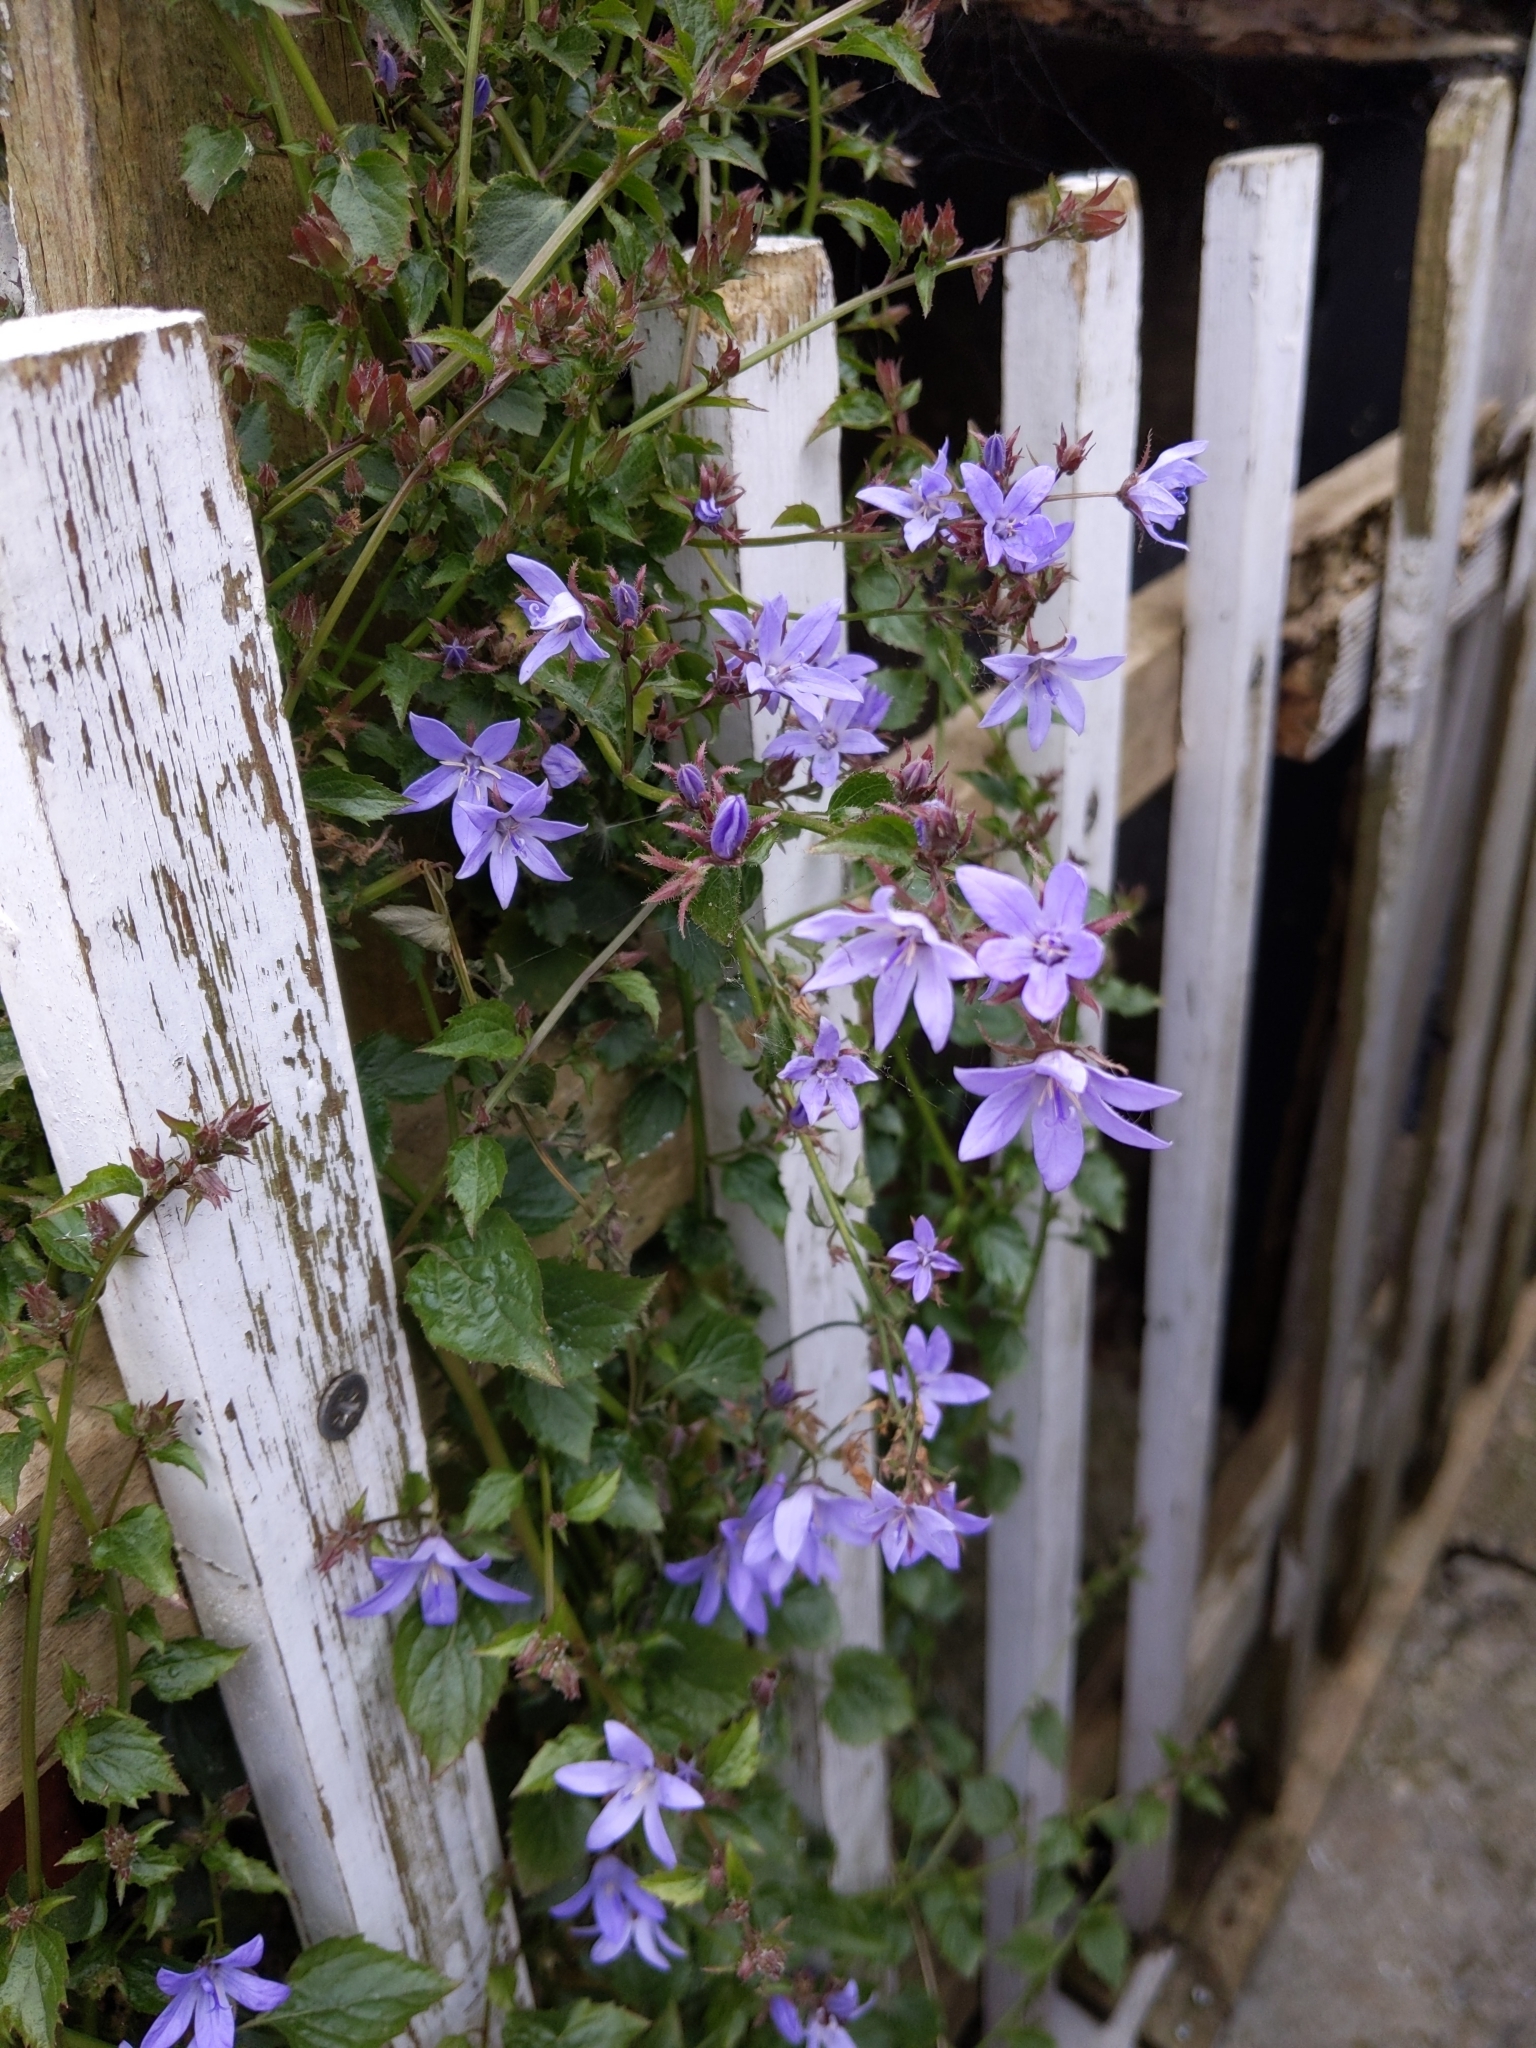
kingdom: Plantae
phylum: Tracheophyta
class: Magnoliopsida
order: Asterales
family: Campanulaceae
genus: Campanula
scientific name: Campanula poscharskyana
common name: Trailing bellflower
